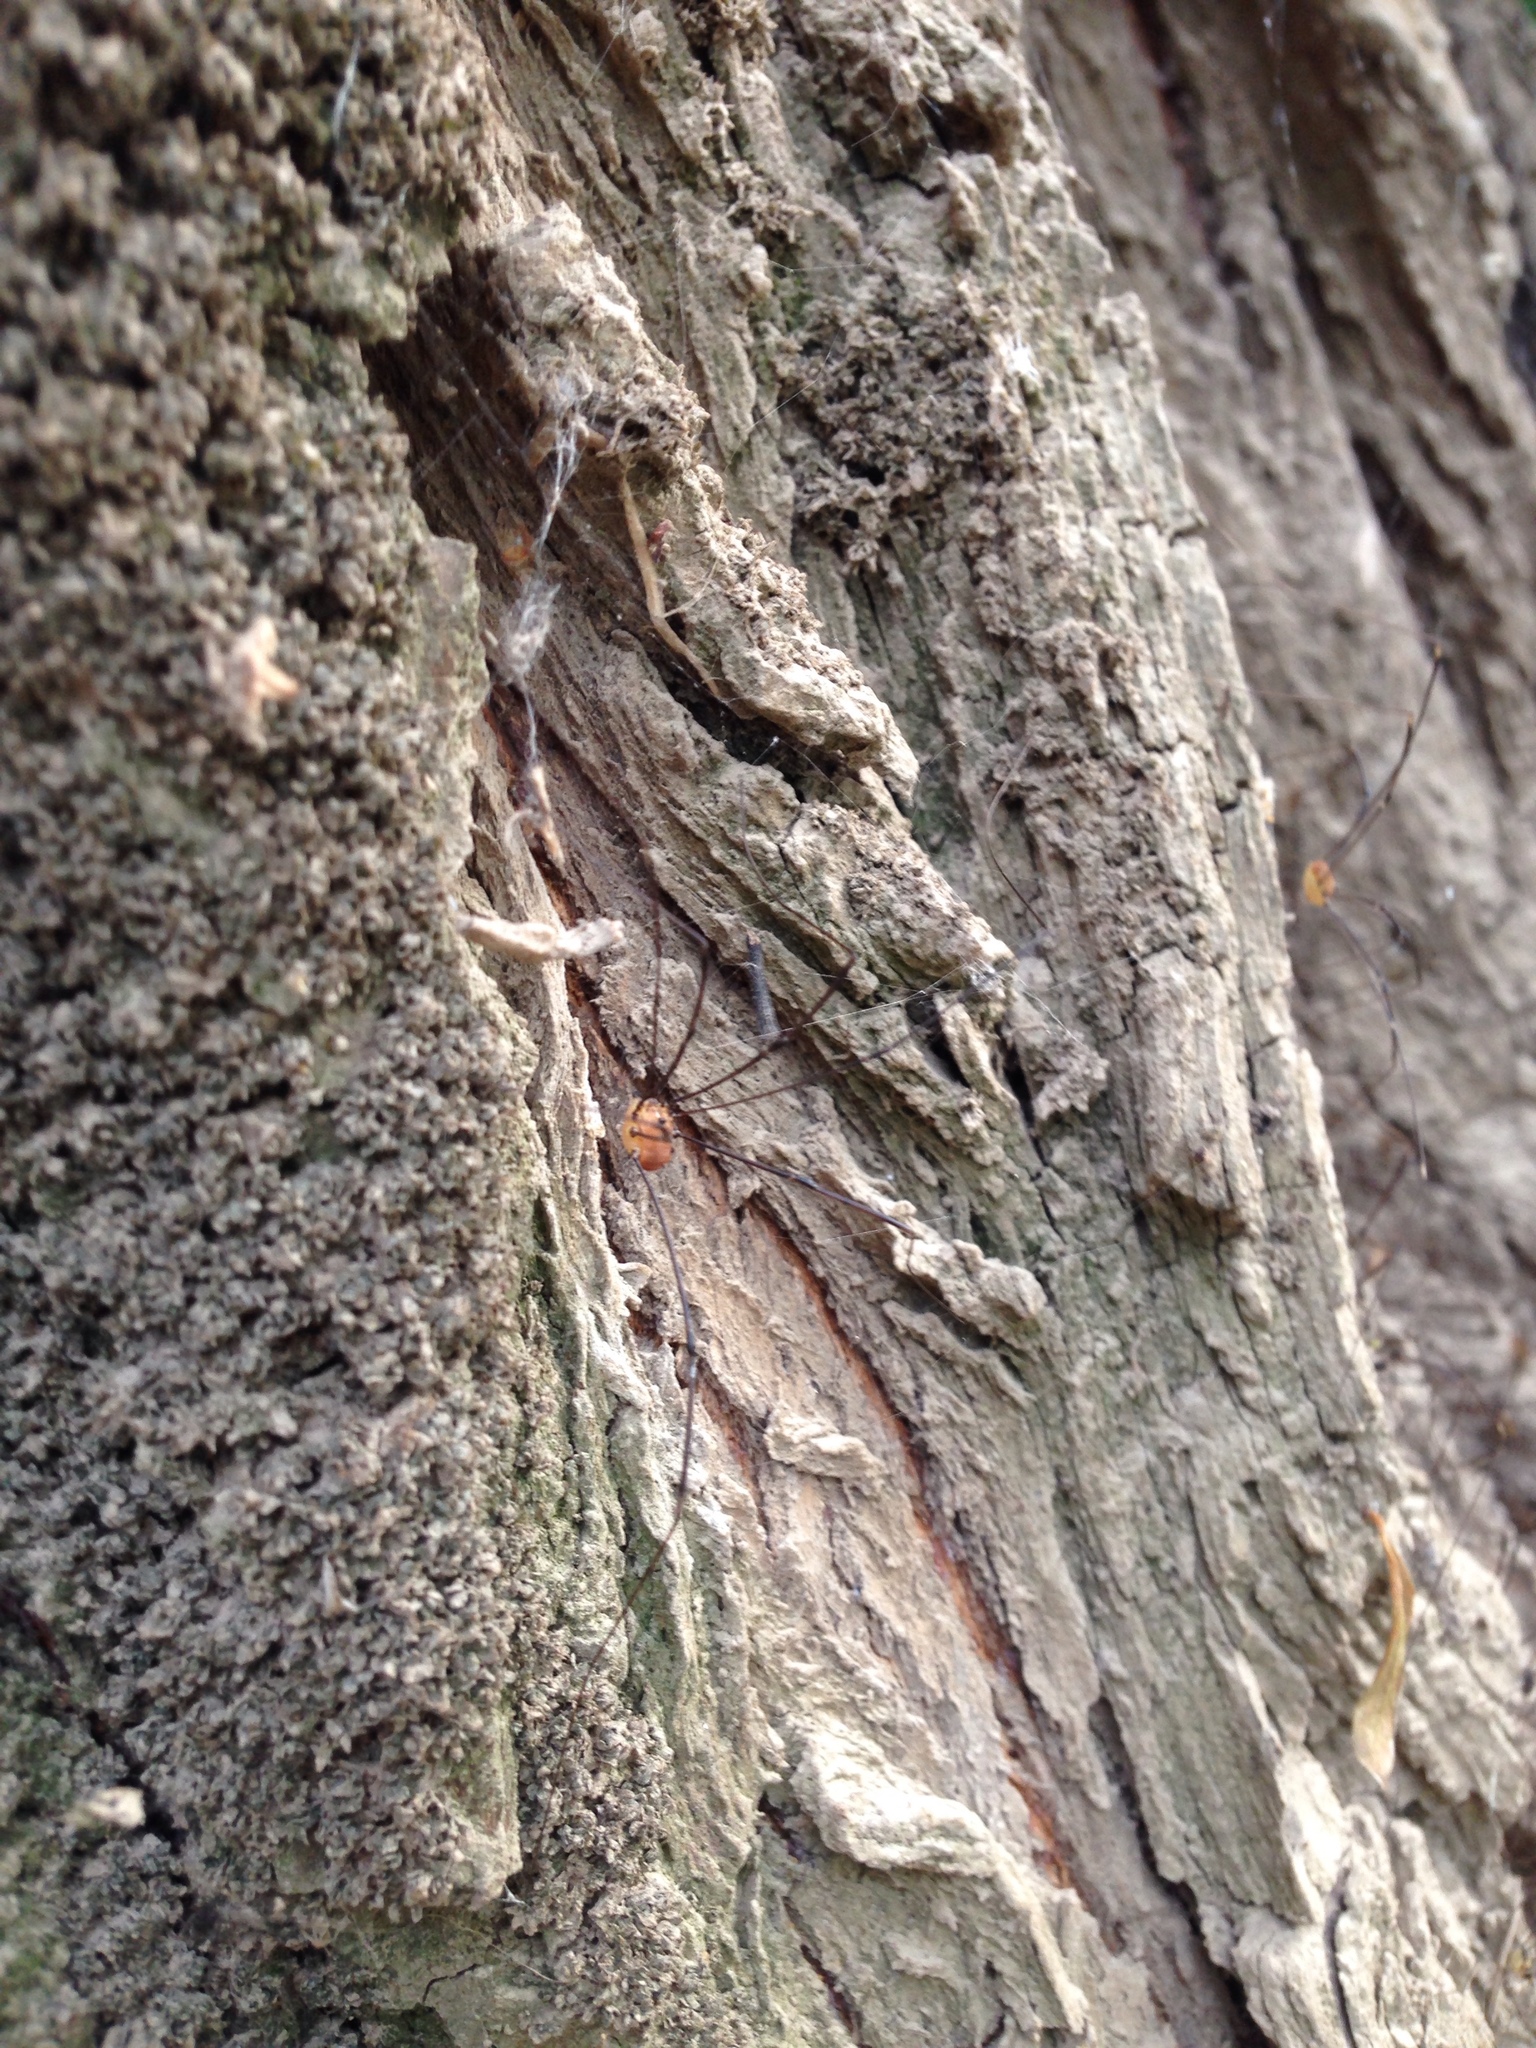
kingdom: Animalia
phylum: Arthropoda
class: Arachnida
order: Opiliones
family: Sclerosomatidae
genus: Leiobunum
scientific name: Leiobunum rotundum
